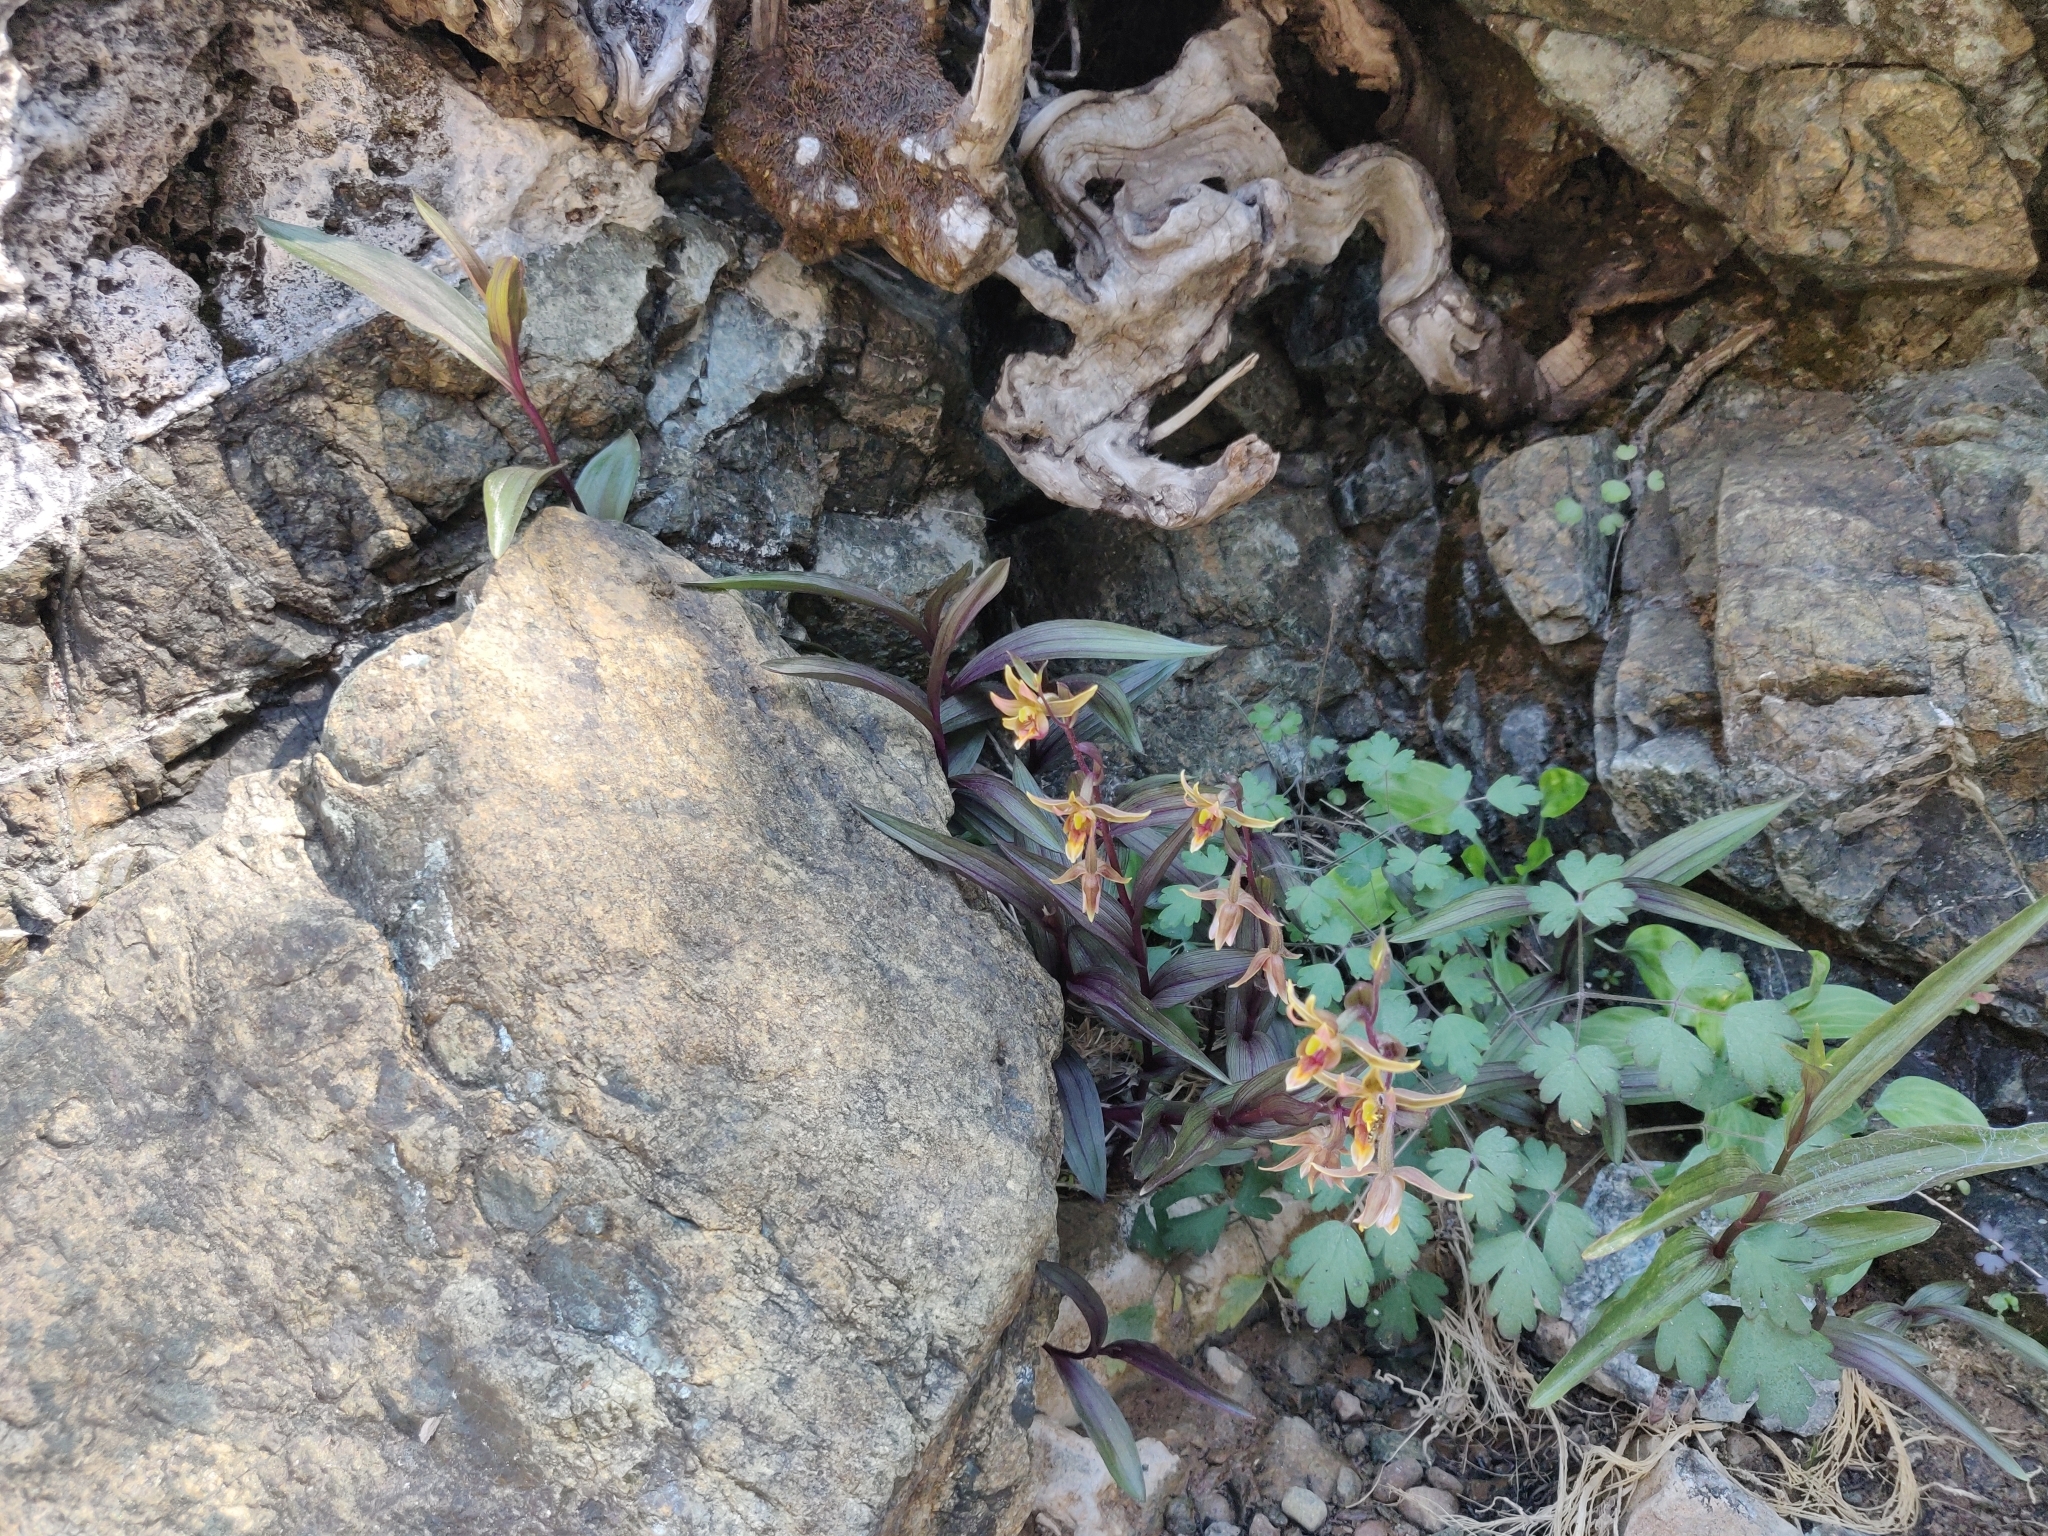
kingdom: Plantae
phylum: Tracheophyta
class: Liliopsida
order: Asparagales
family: Orchidaceae
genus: Epipactis
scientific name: Epipactis gigantea
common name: Chatterbox
